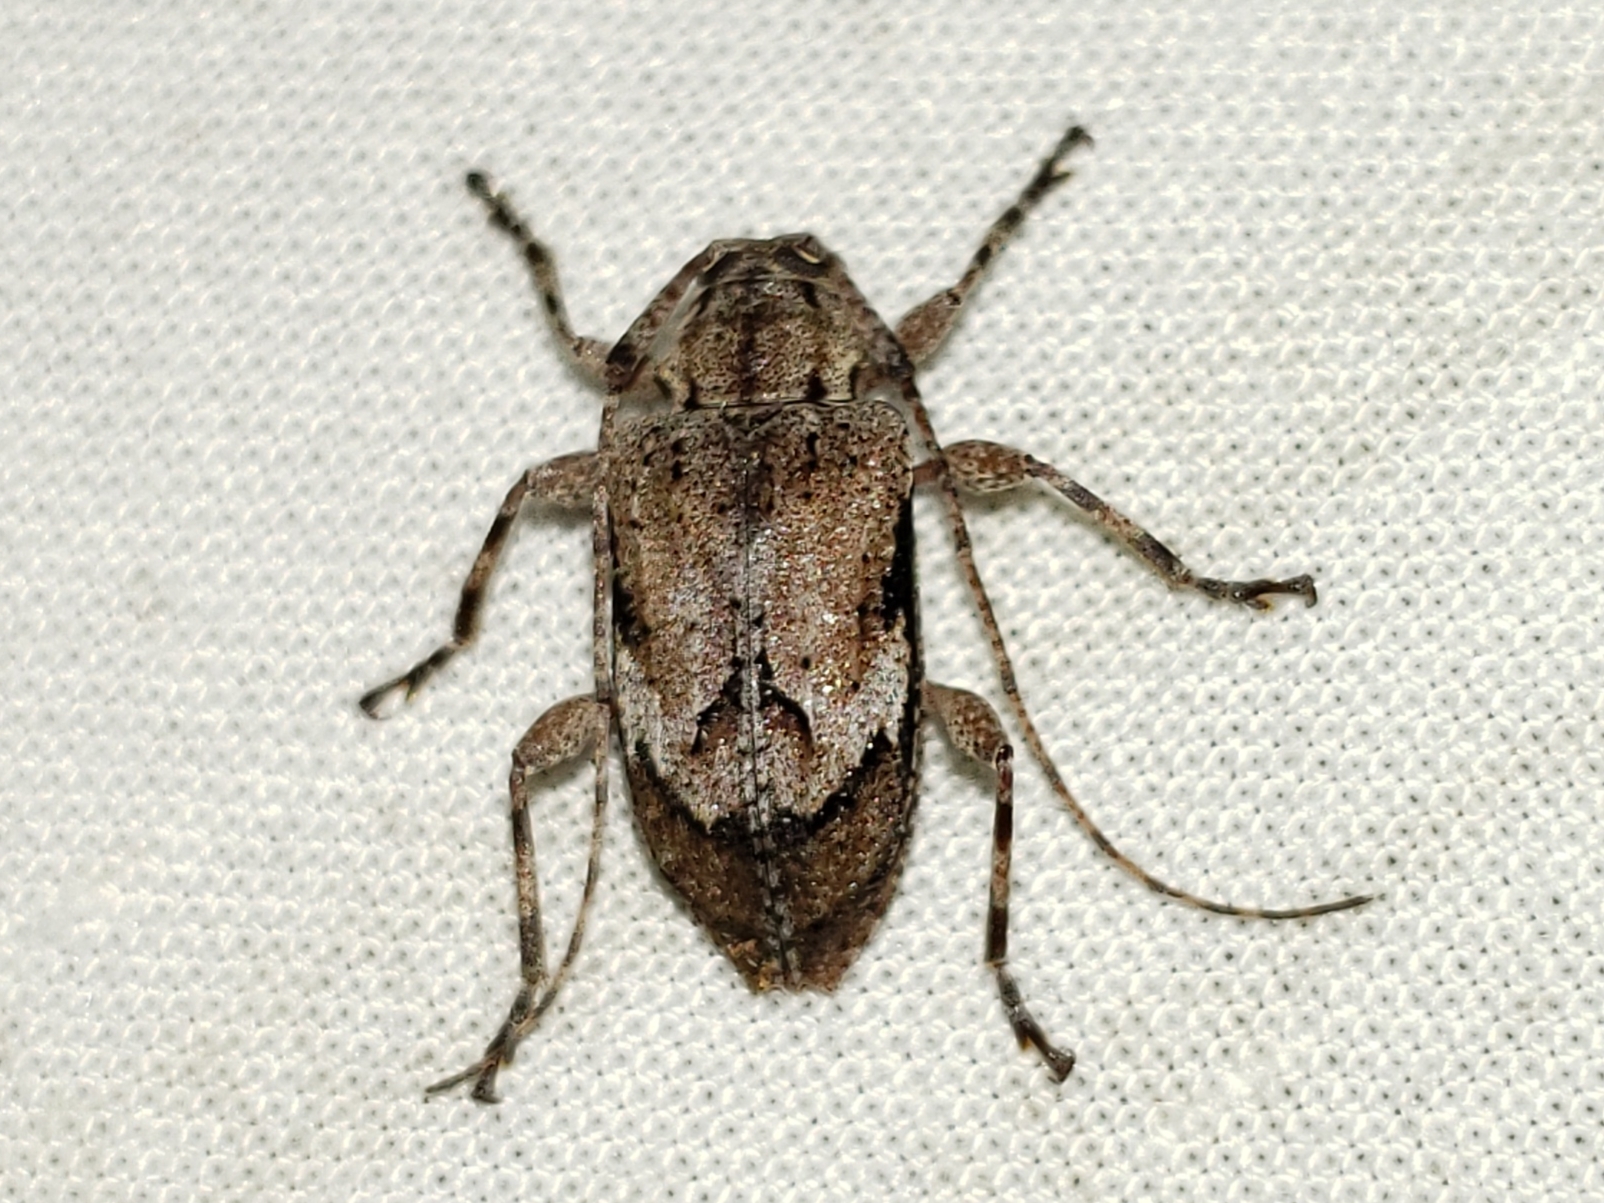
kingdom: Animalia
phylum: Arthropoda
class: Insecta
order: Coleoptera
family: Cerambycidae
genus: Astylopsis
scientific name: Astylopsis arcuata
